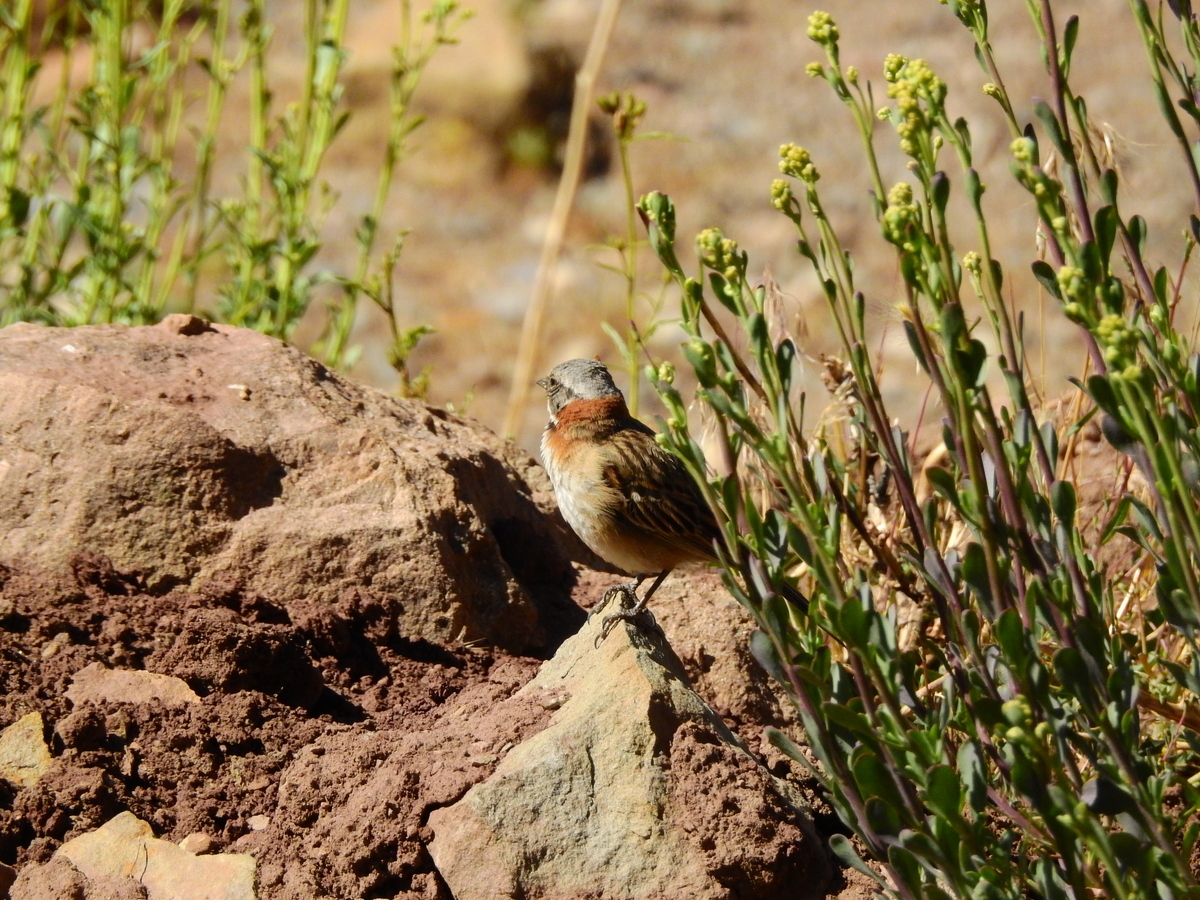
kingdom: Animalia
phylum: Chordata
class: Aves
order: Passeriformes
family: Passerellidae
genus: Zonotrichia
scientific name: Zonotrichia capensis
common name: Rufous-collared sparrow
